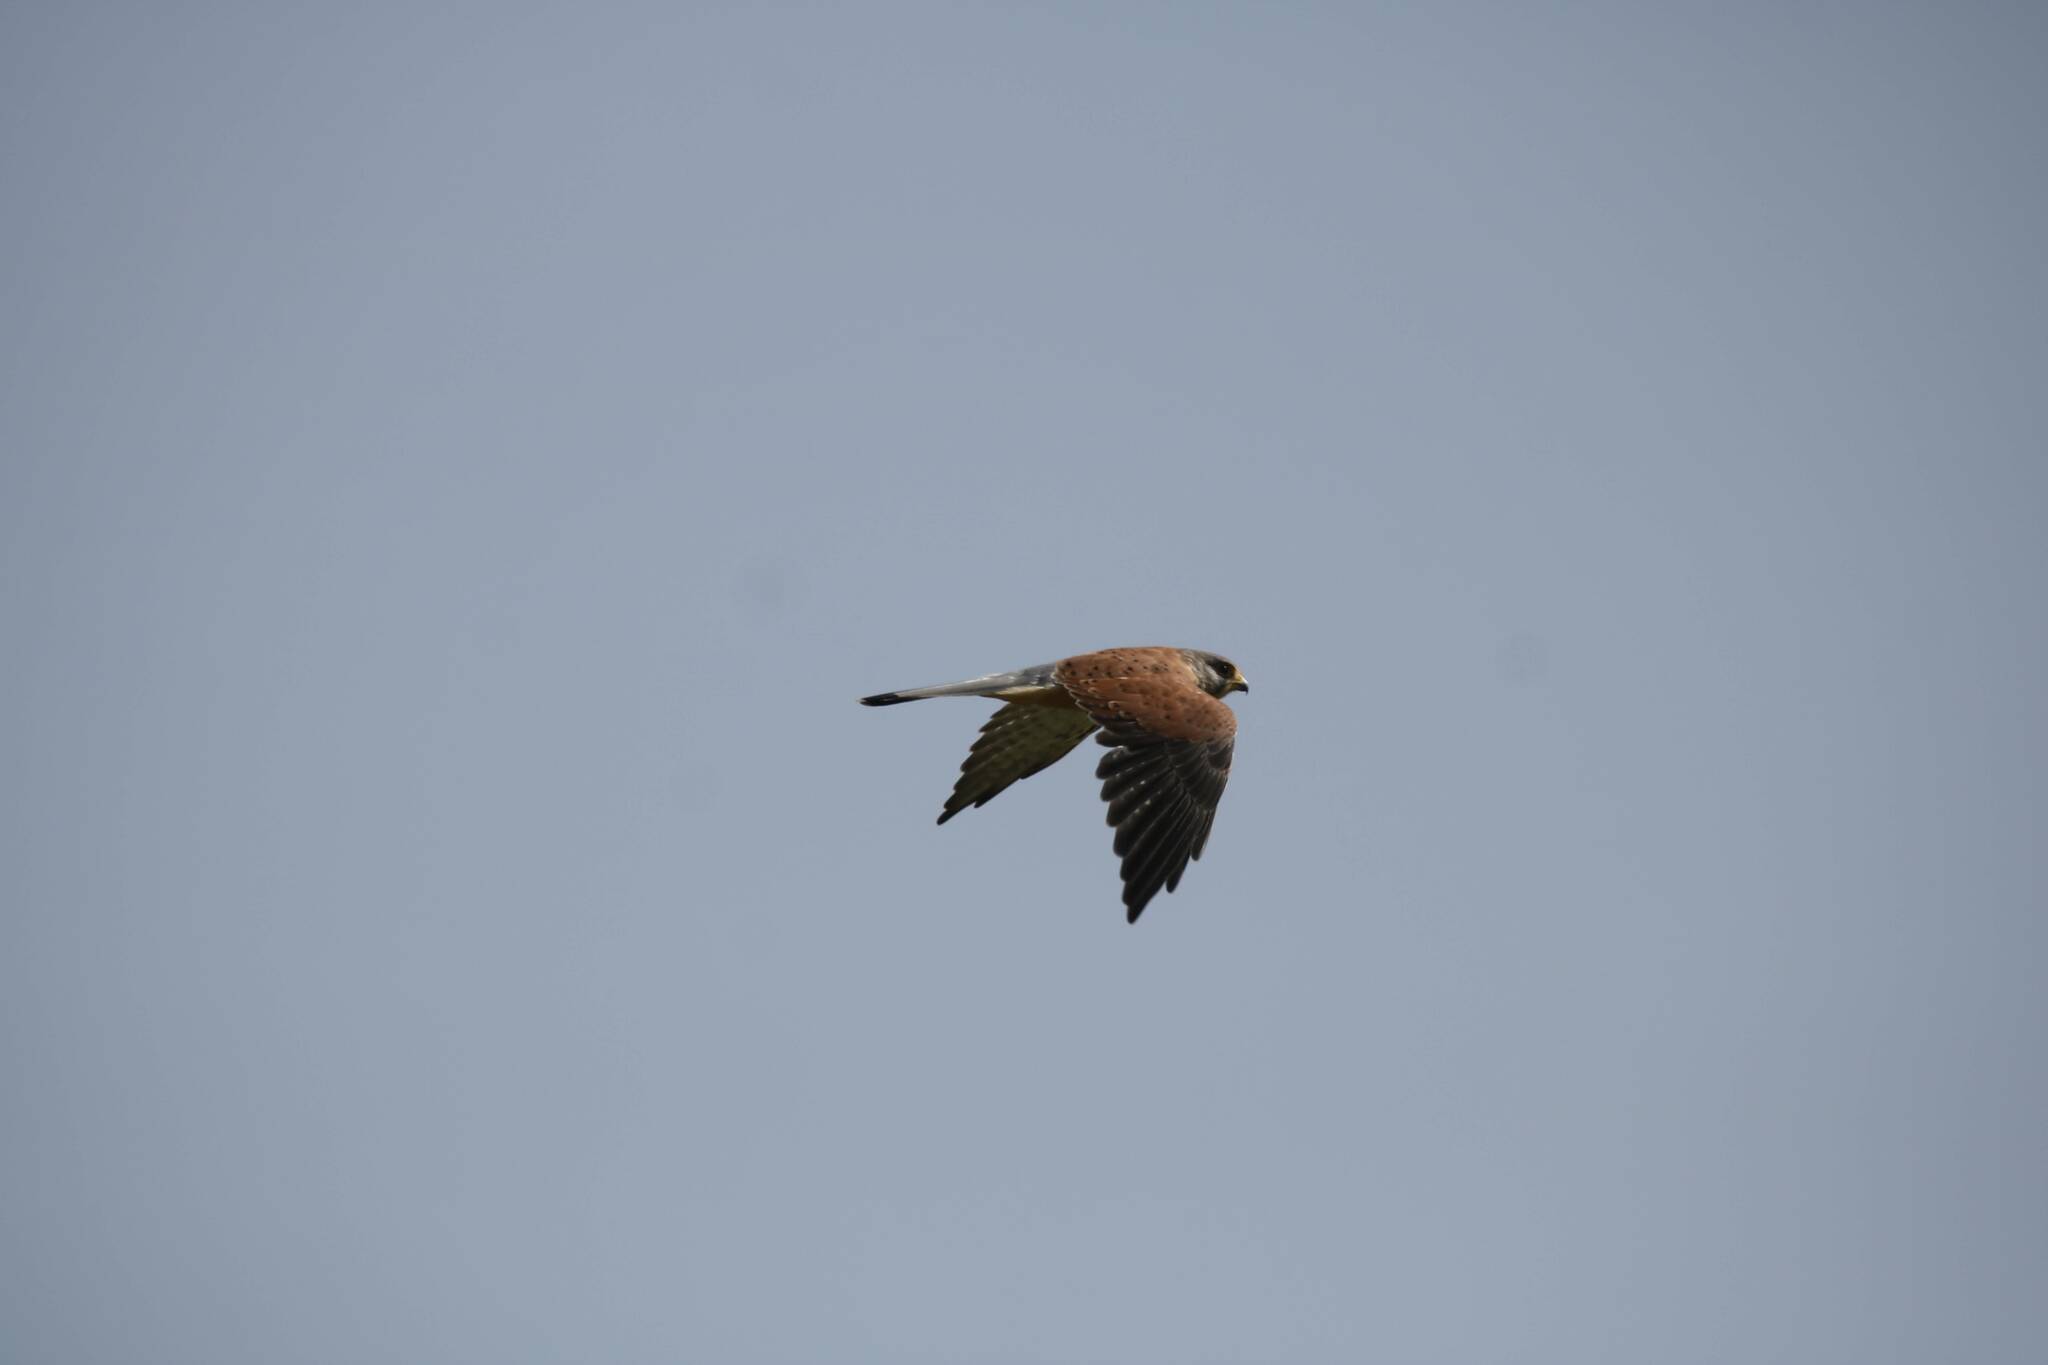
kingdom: Animalia
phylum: Chordata
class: Aves
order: Falconiformes
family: Falconidae
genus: Falco
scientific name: Falco tinnunculus
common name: Common kestrel
